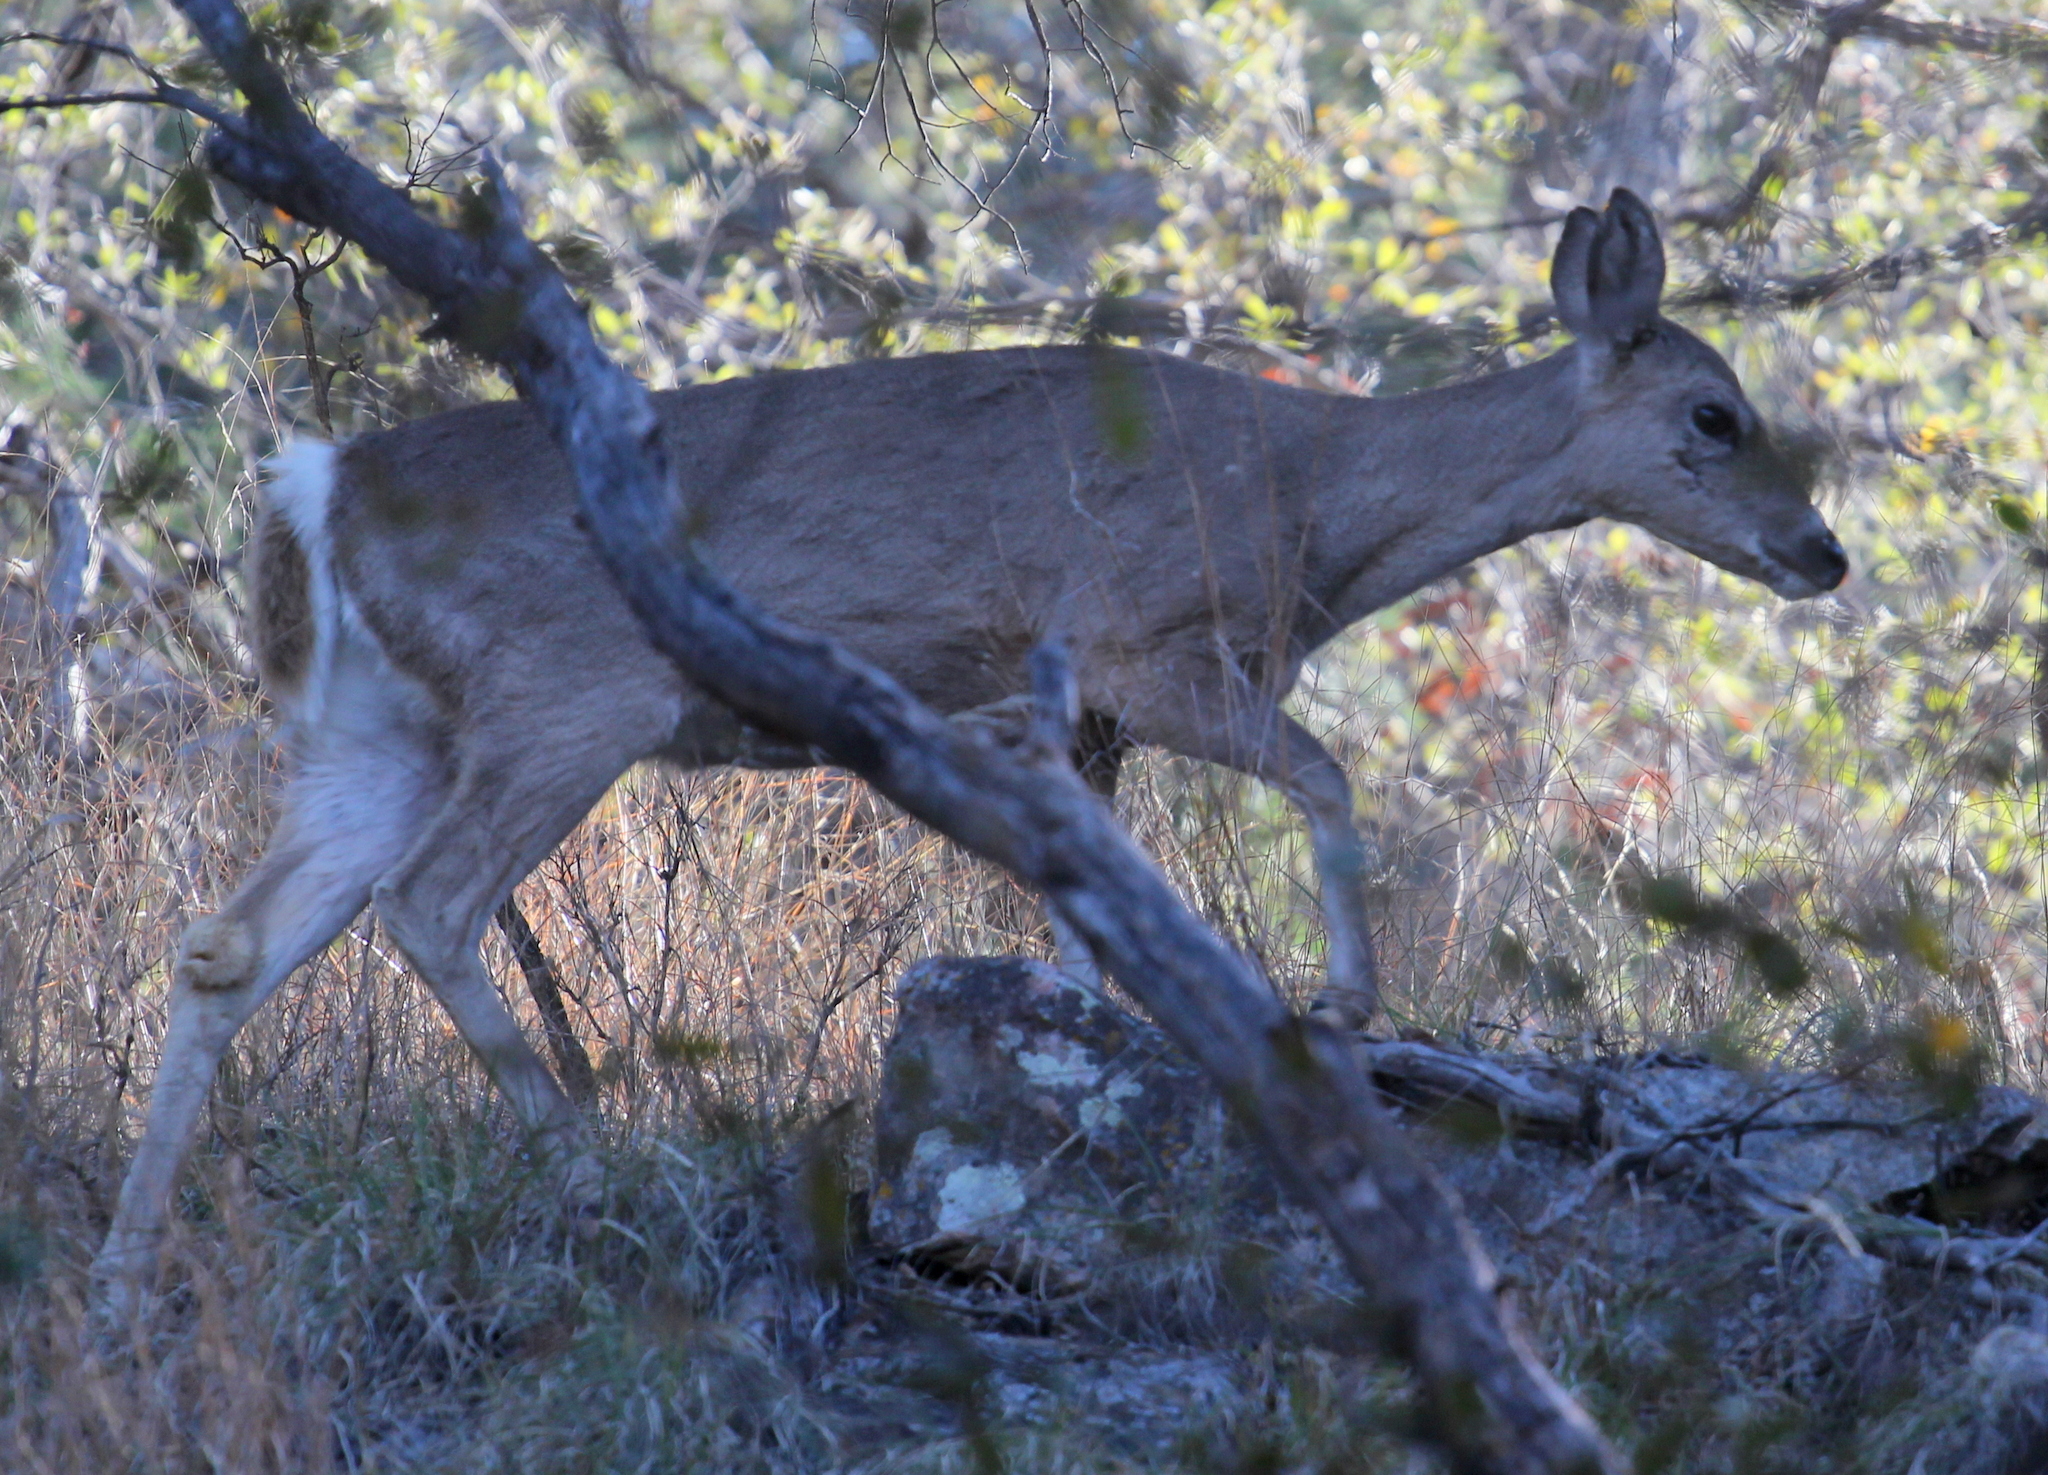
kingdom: Animalia
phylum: Chordata
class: Mammalia
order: Artiodactyla
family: Cervidae
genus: Odocoileus
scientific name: Odocoileus virginianus
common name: White-tailed deer
